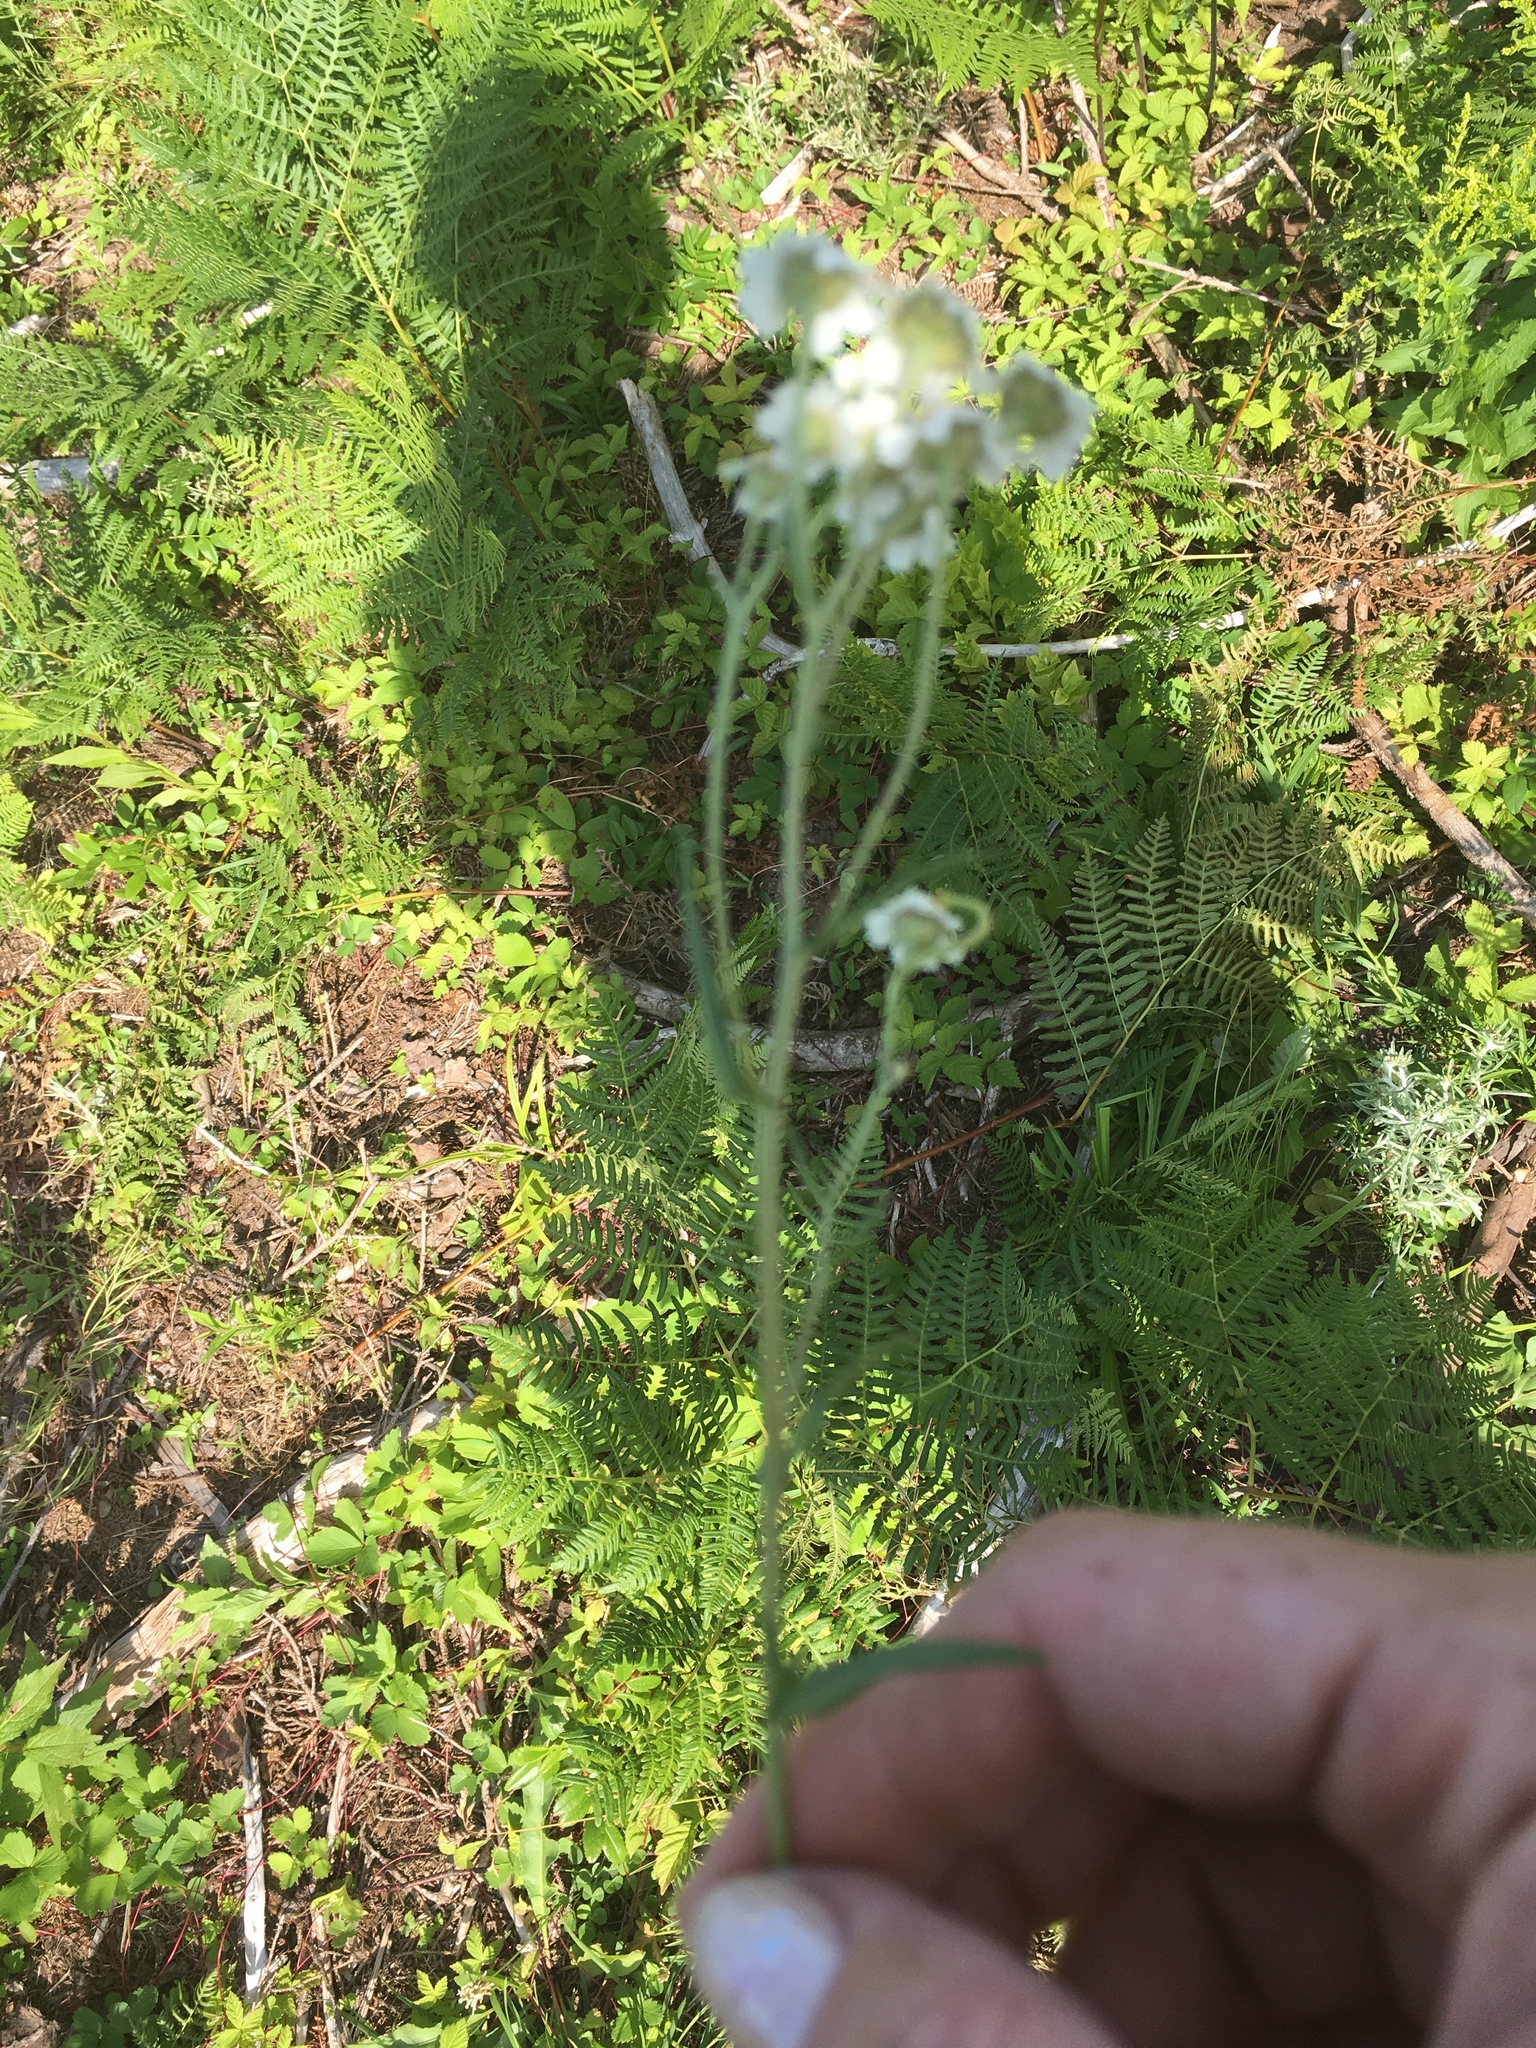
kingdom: Plantae
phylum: Tracheophyta
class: Magnoliopsida
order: Asterales
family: Asteraceae
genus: Achillea
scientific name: Achillea ptarmica
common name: Sneezeweed
